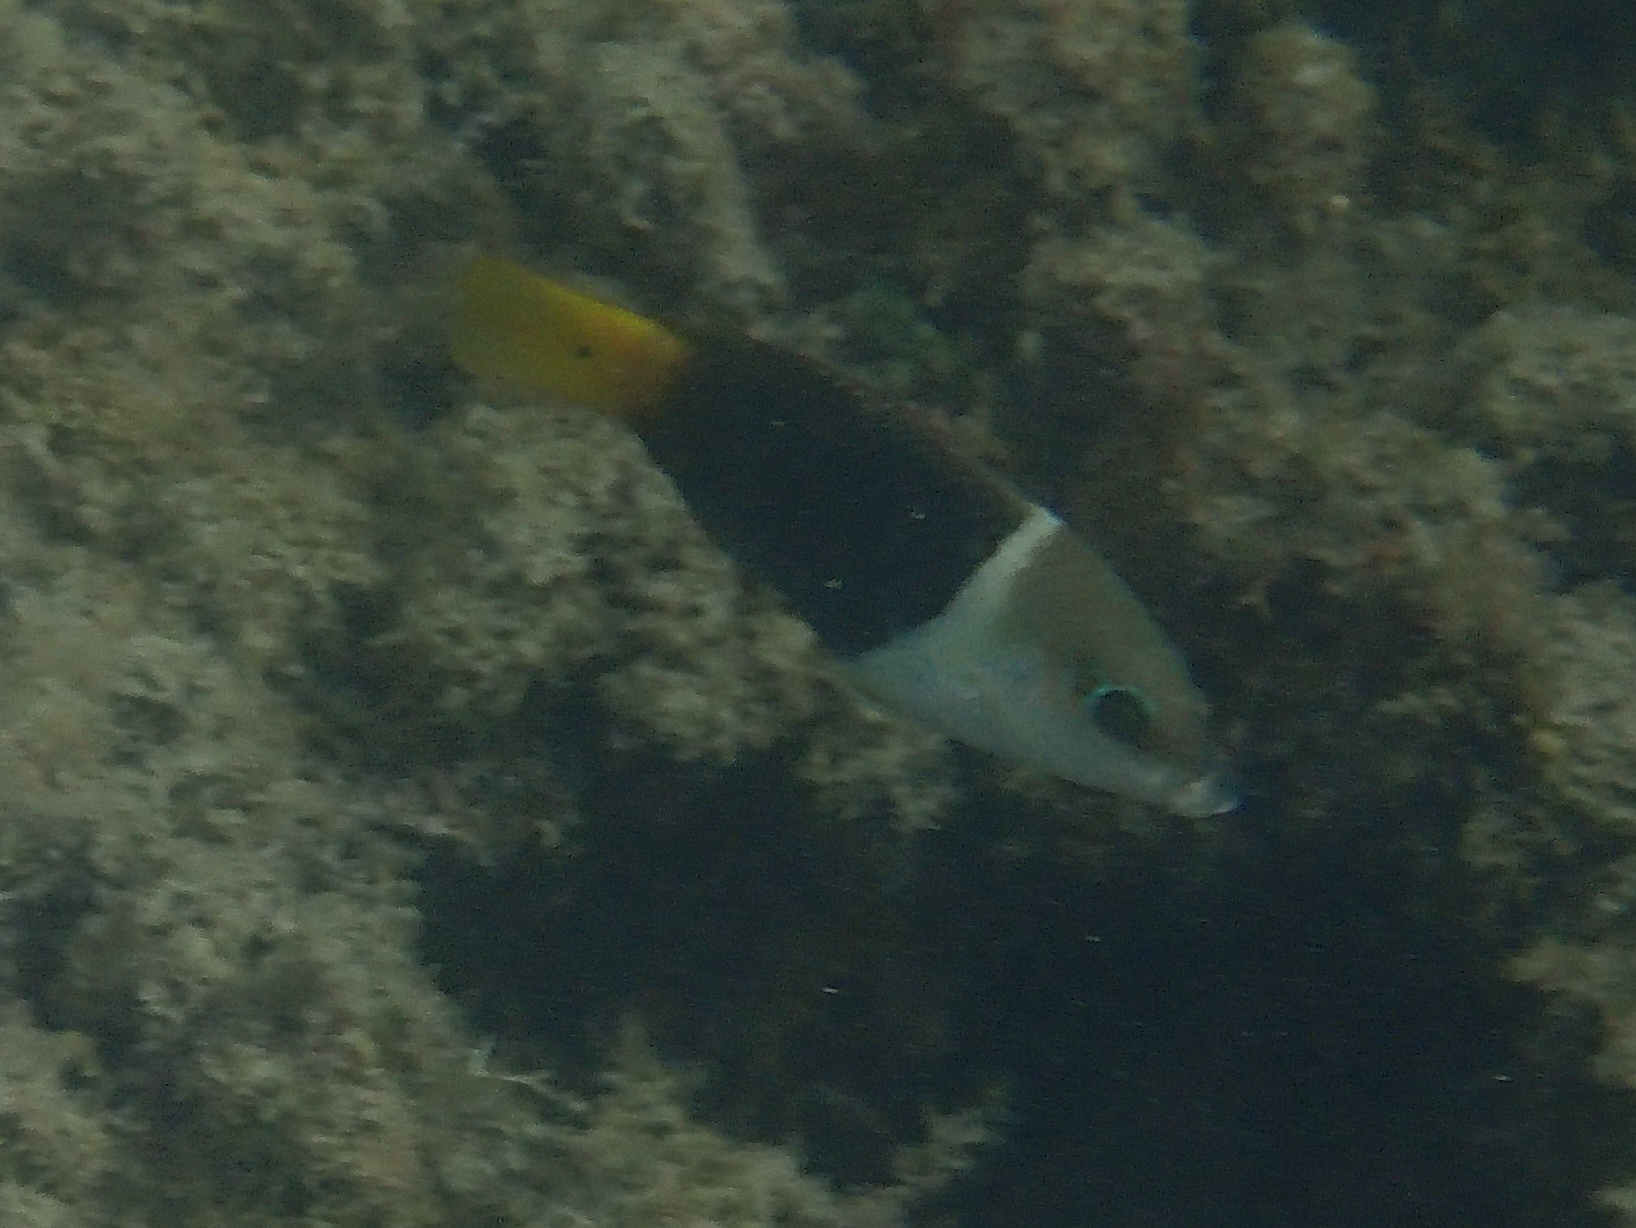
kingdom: Animalia
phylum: Chordata
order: Perciformes
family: Labridae
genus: Hemigymnus
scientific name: Hemigymnus melapterus
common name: Blackeye thicklip
